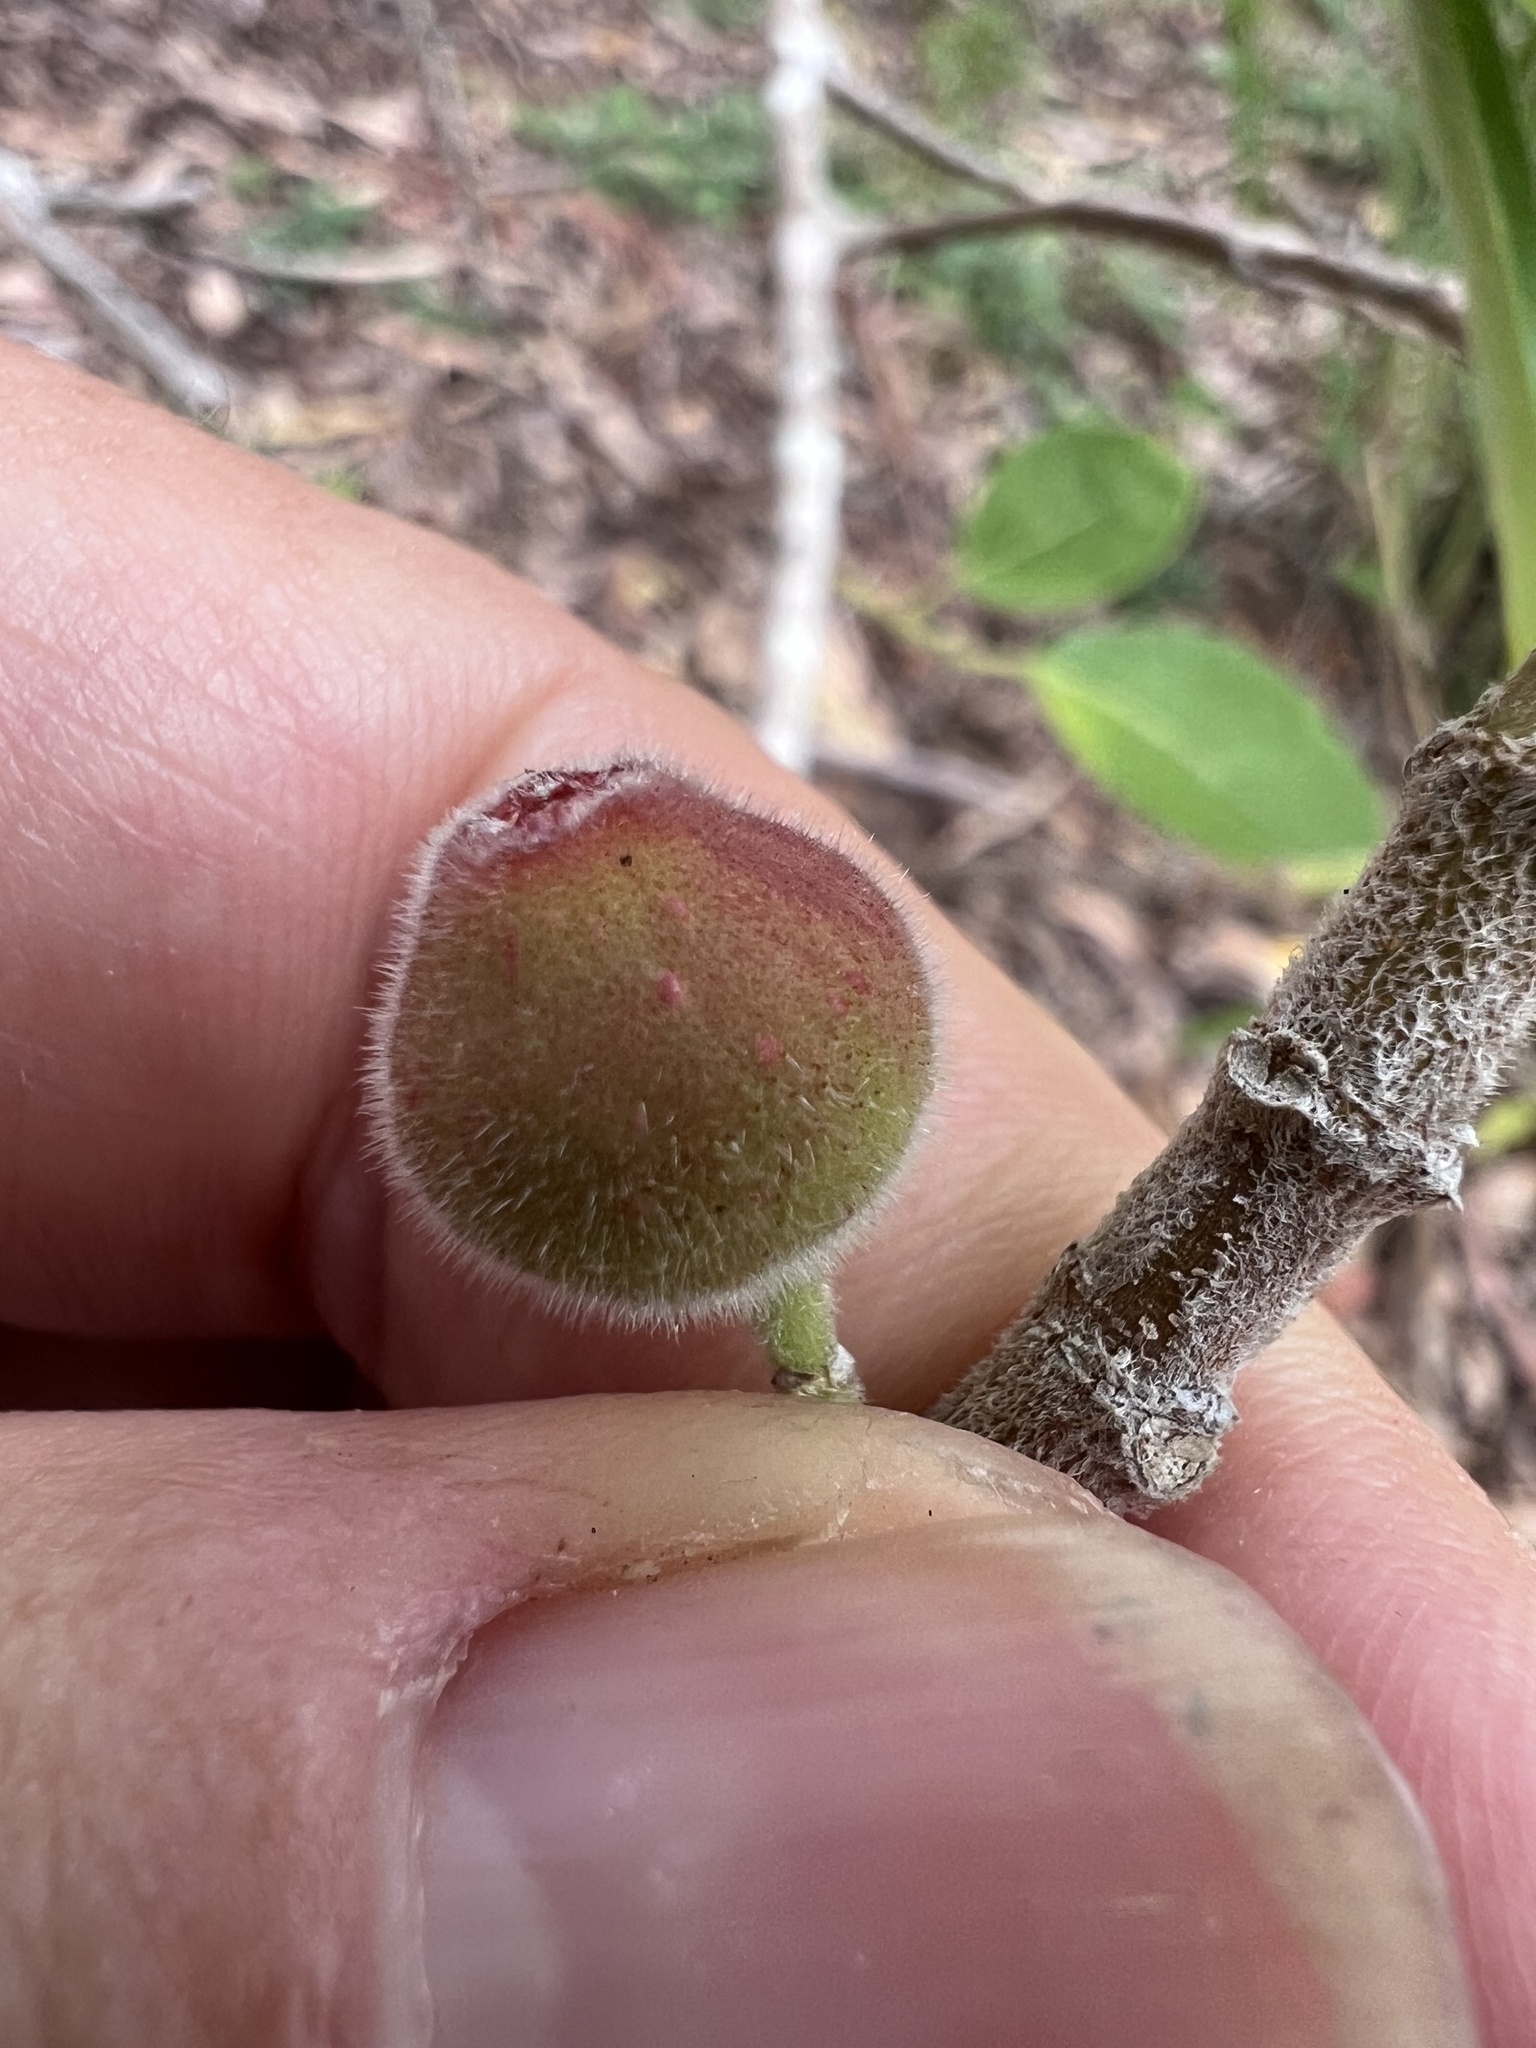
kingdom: Plantae
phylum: Tracheophyta
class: Magnoliopsida
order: Rosales
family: Moraceae
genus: Ficus
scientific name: Ficus opposita
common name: Figwood
